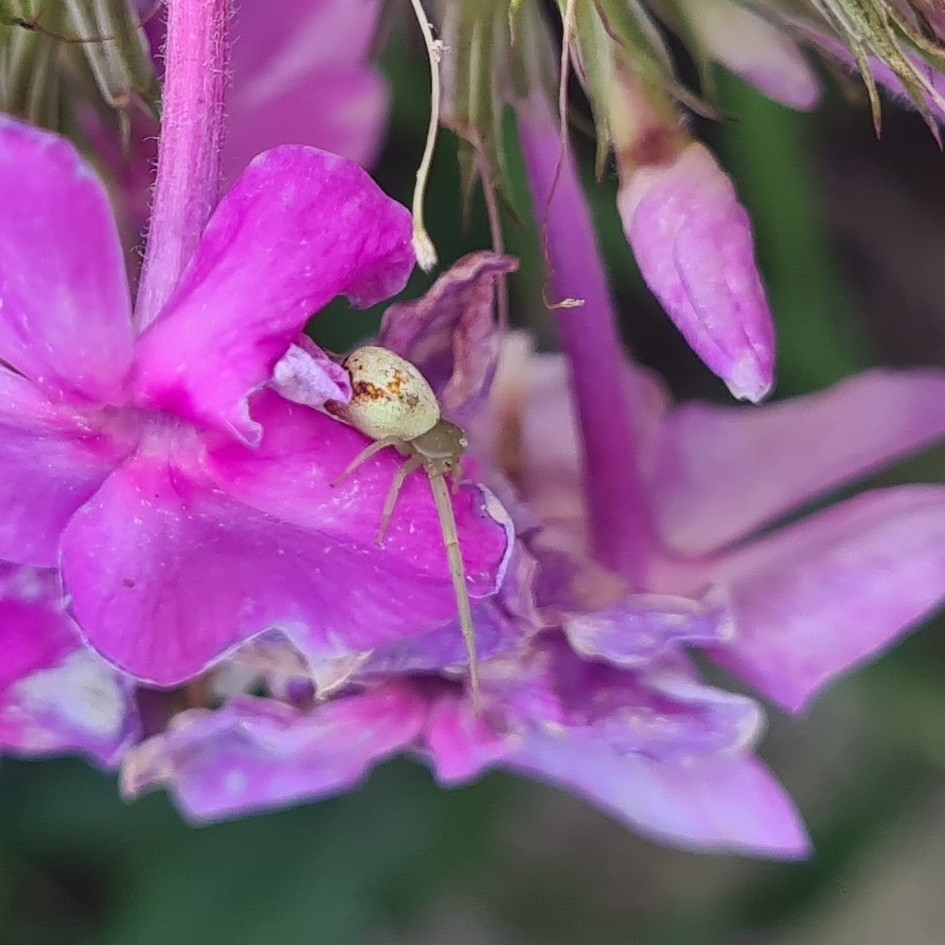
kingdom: Animalia
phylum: Arthropoda
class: Arachnida
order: Araneae
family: Thomisidae
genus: Ebrechtella
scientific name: Ebrechtella tricuspidata
